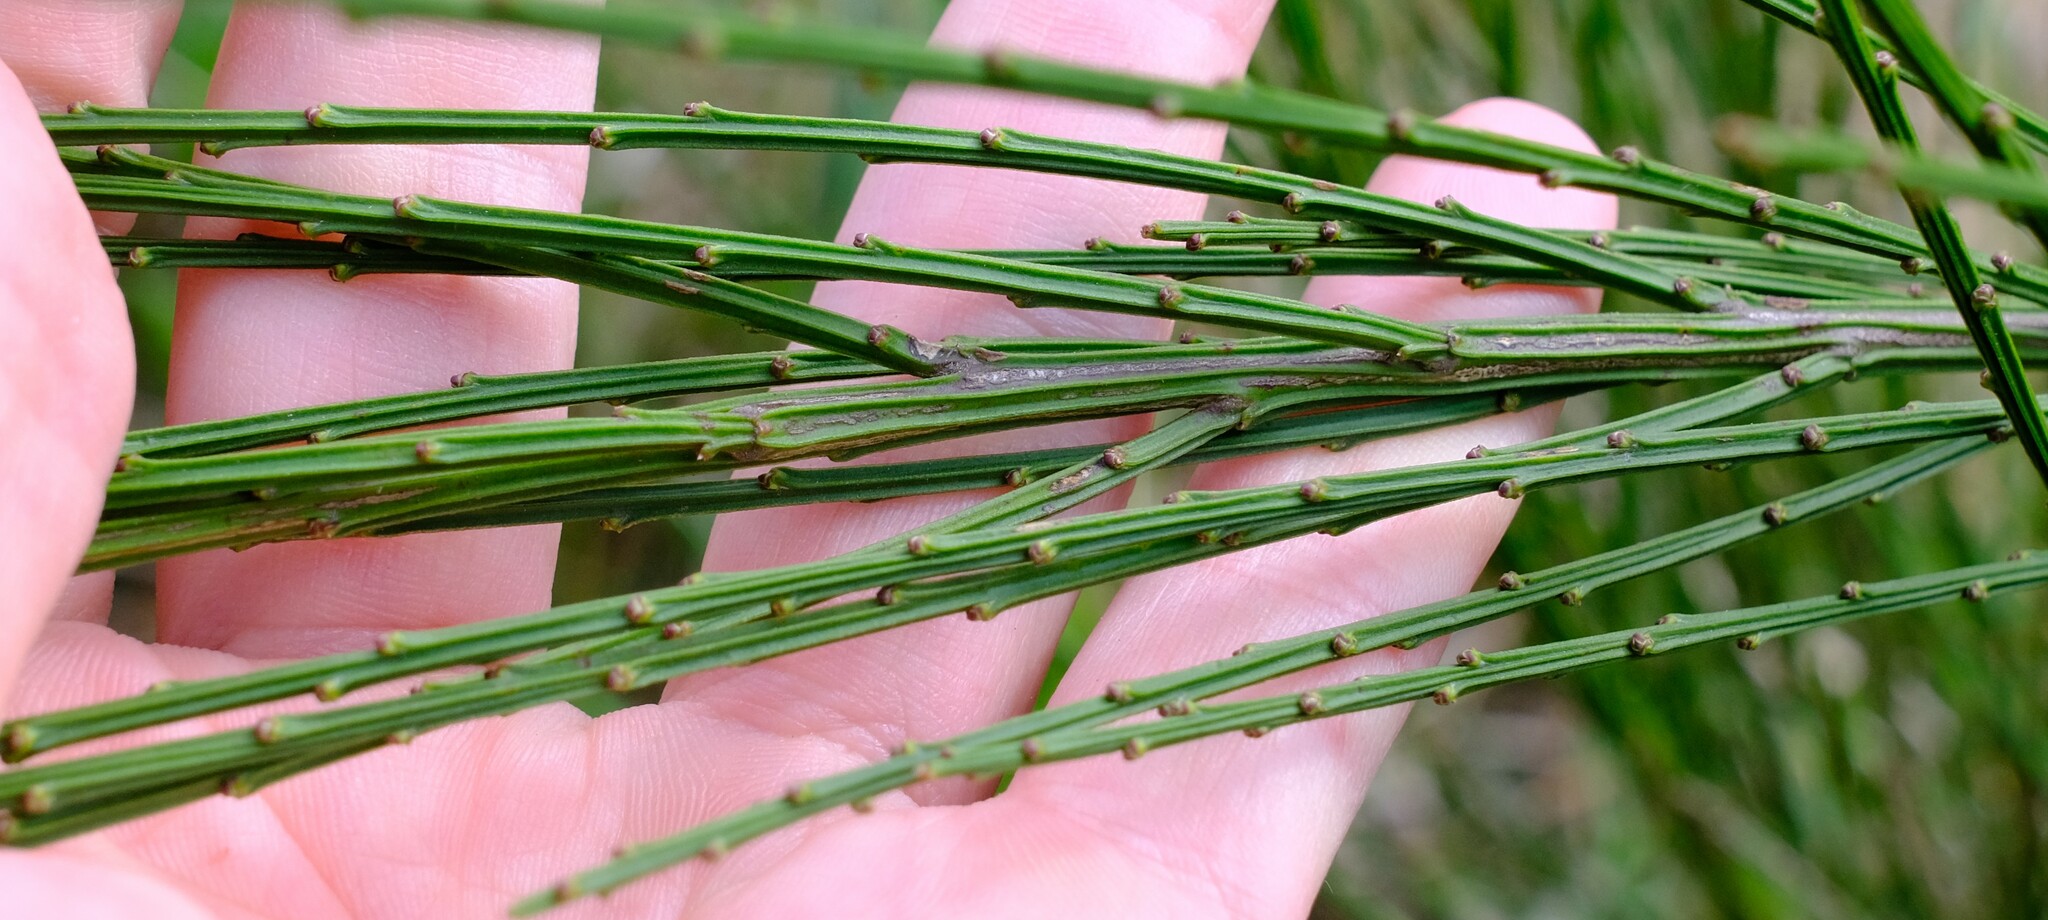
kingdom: Plantae
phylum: Tracheophyta
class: Magnoliopsida
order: Malpighiales
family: Euphorbiaceae
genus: Amperea
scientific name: Amperea xiphoclada
